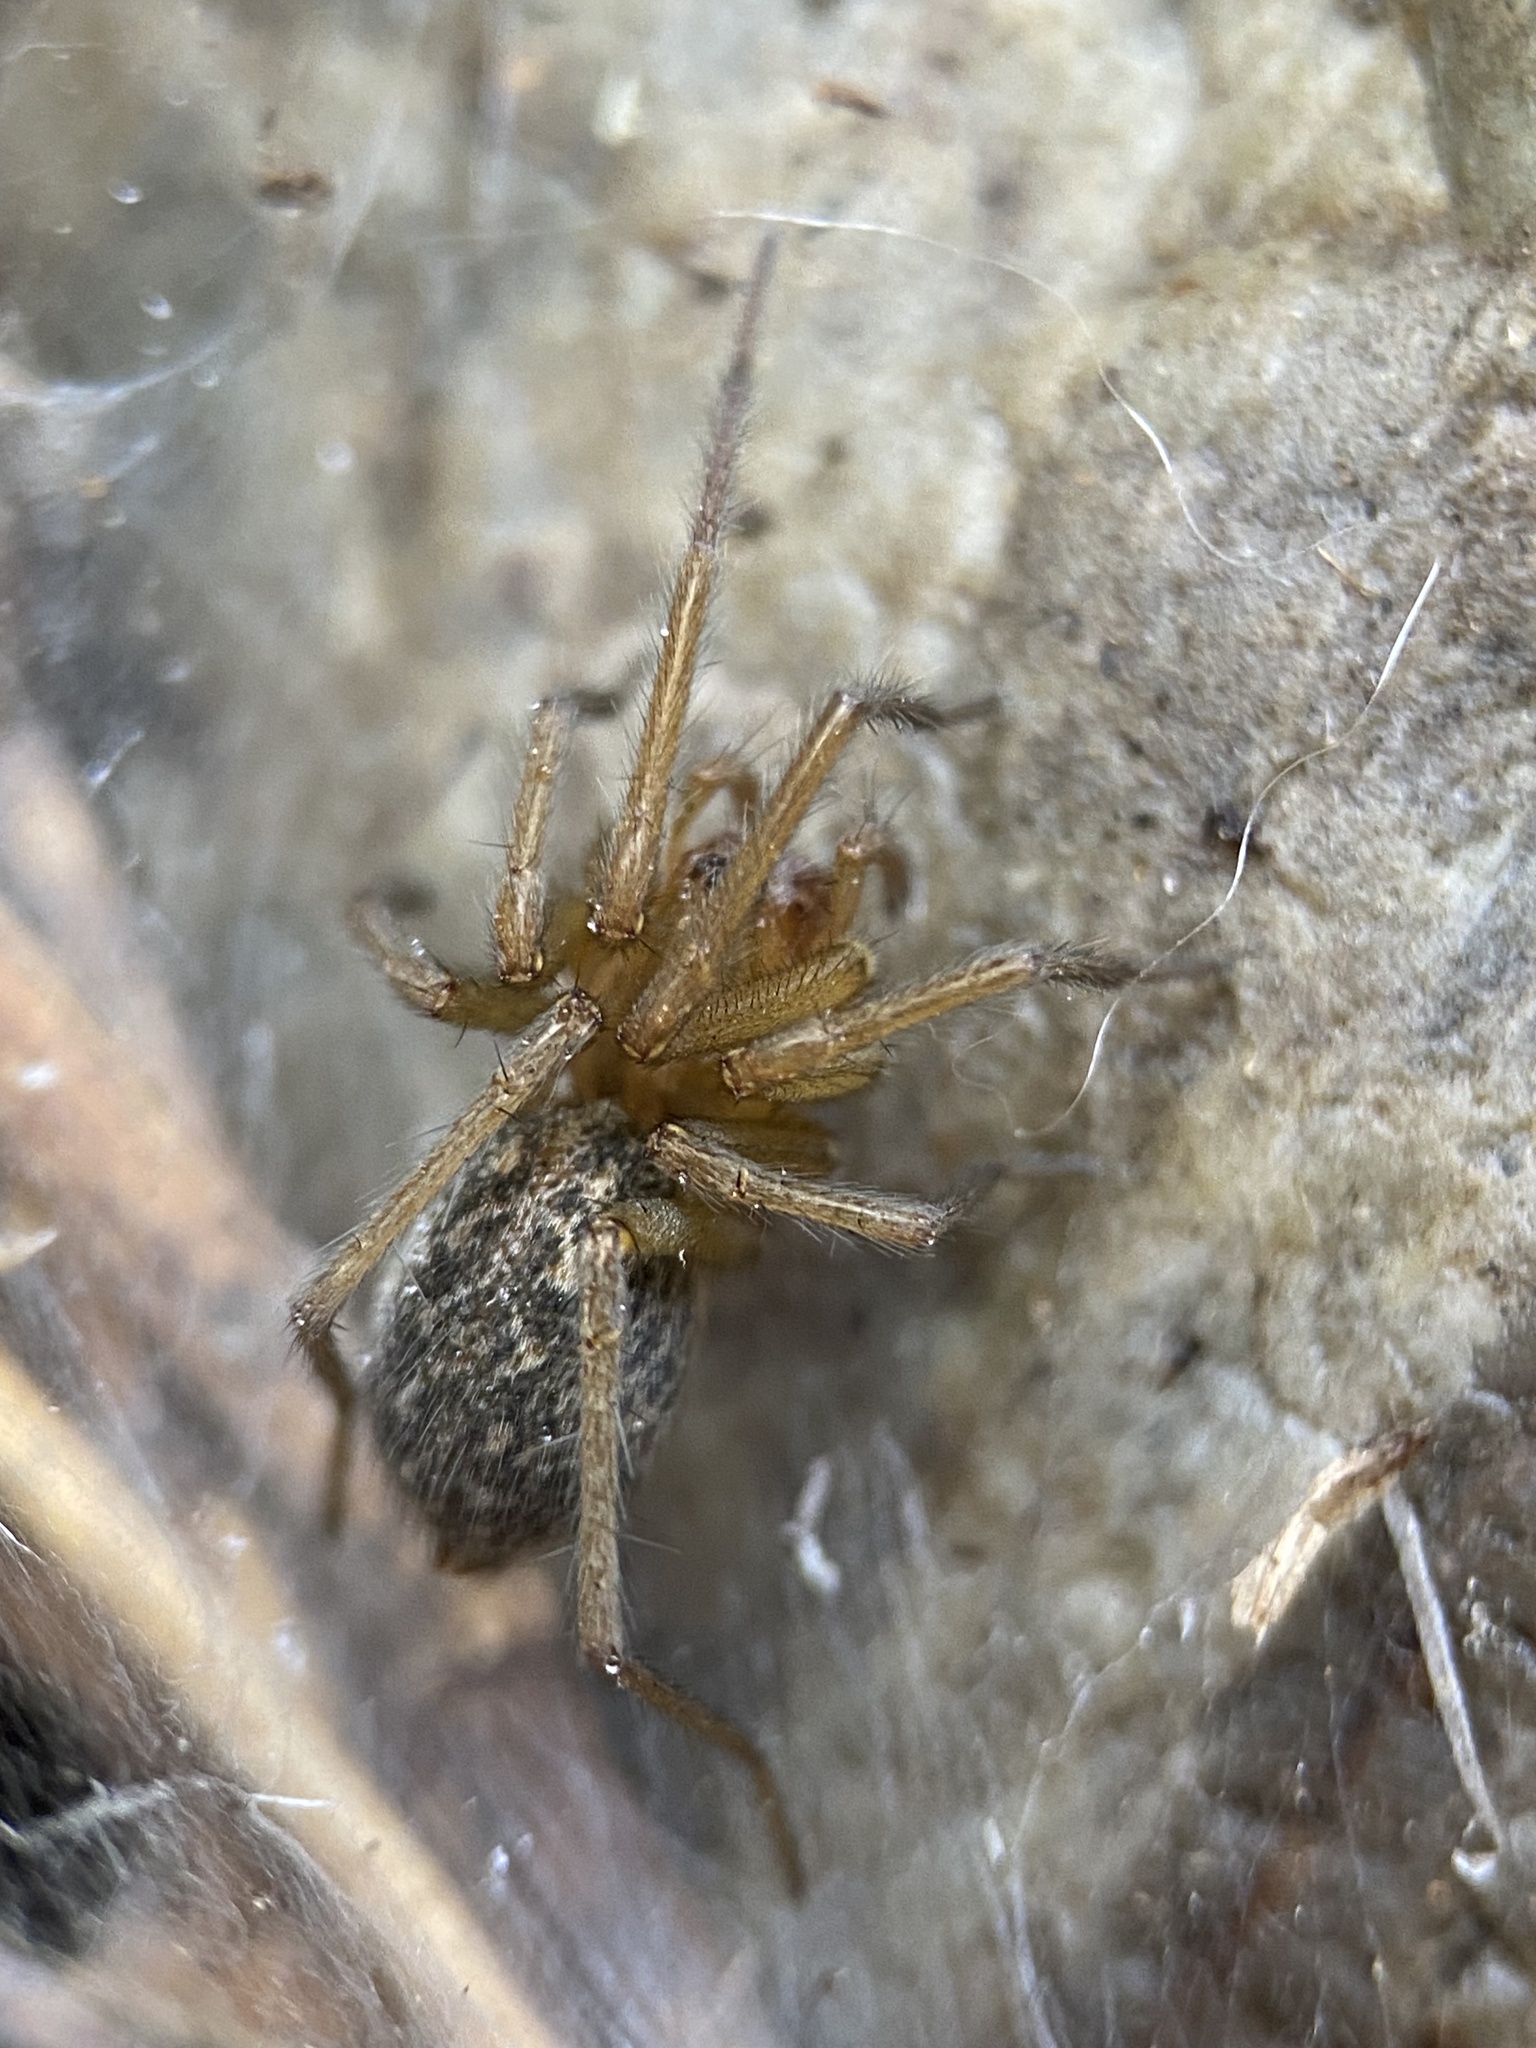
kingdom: Animalia
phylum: Arthropoda
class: Arachnida
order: Araneae
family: Agelenidae
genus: Eratigena
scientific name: Eratigena agrestis
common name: Hobo spider
